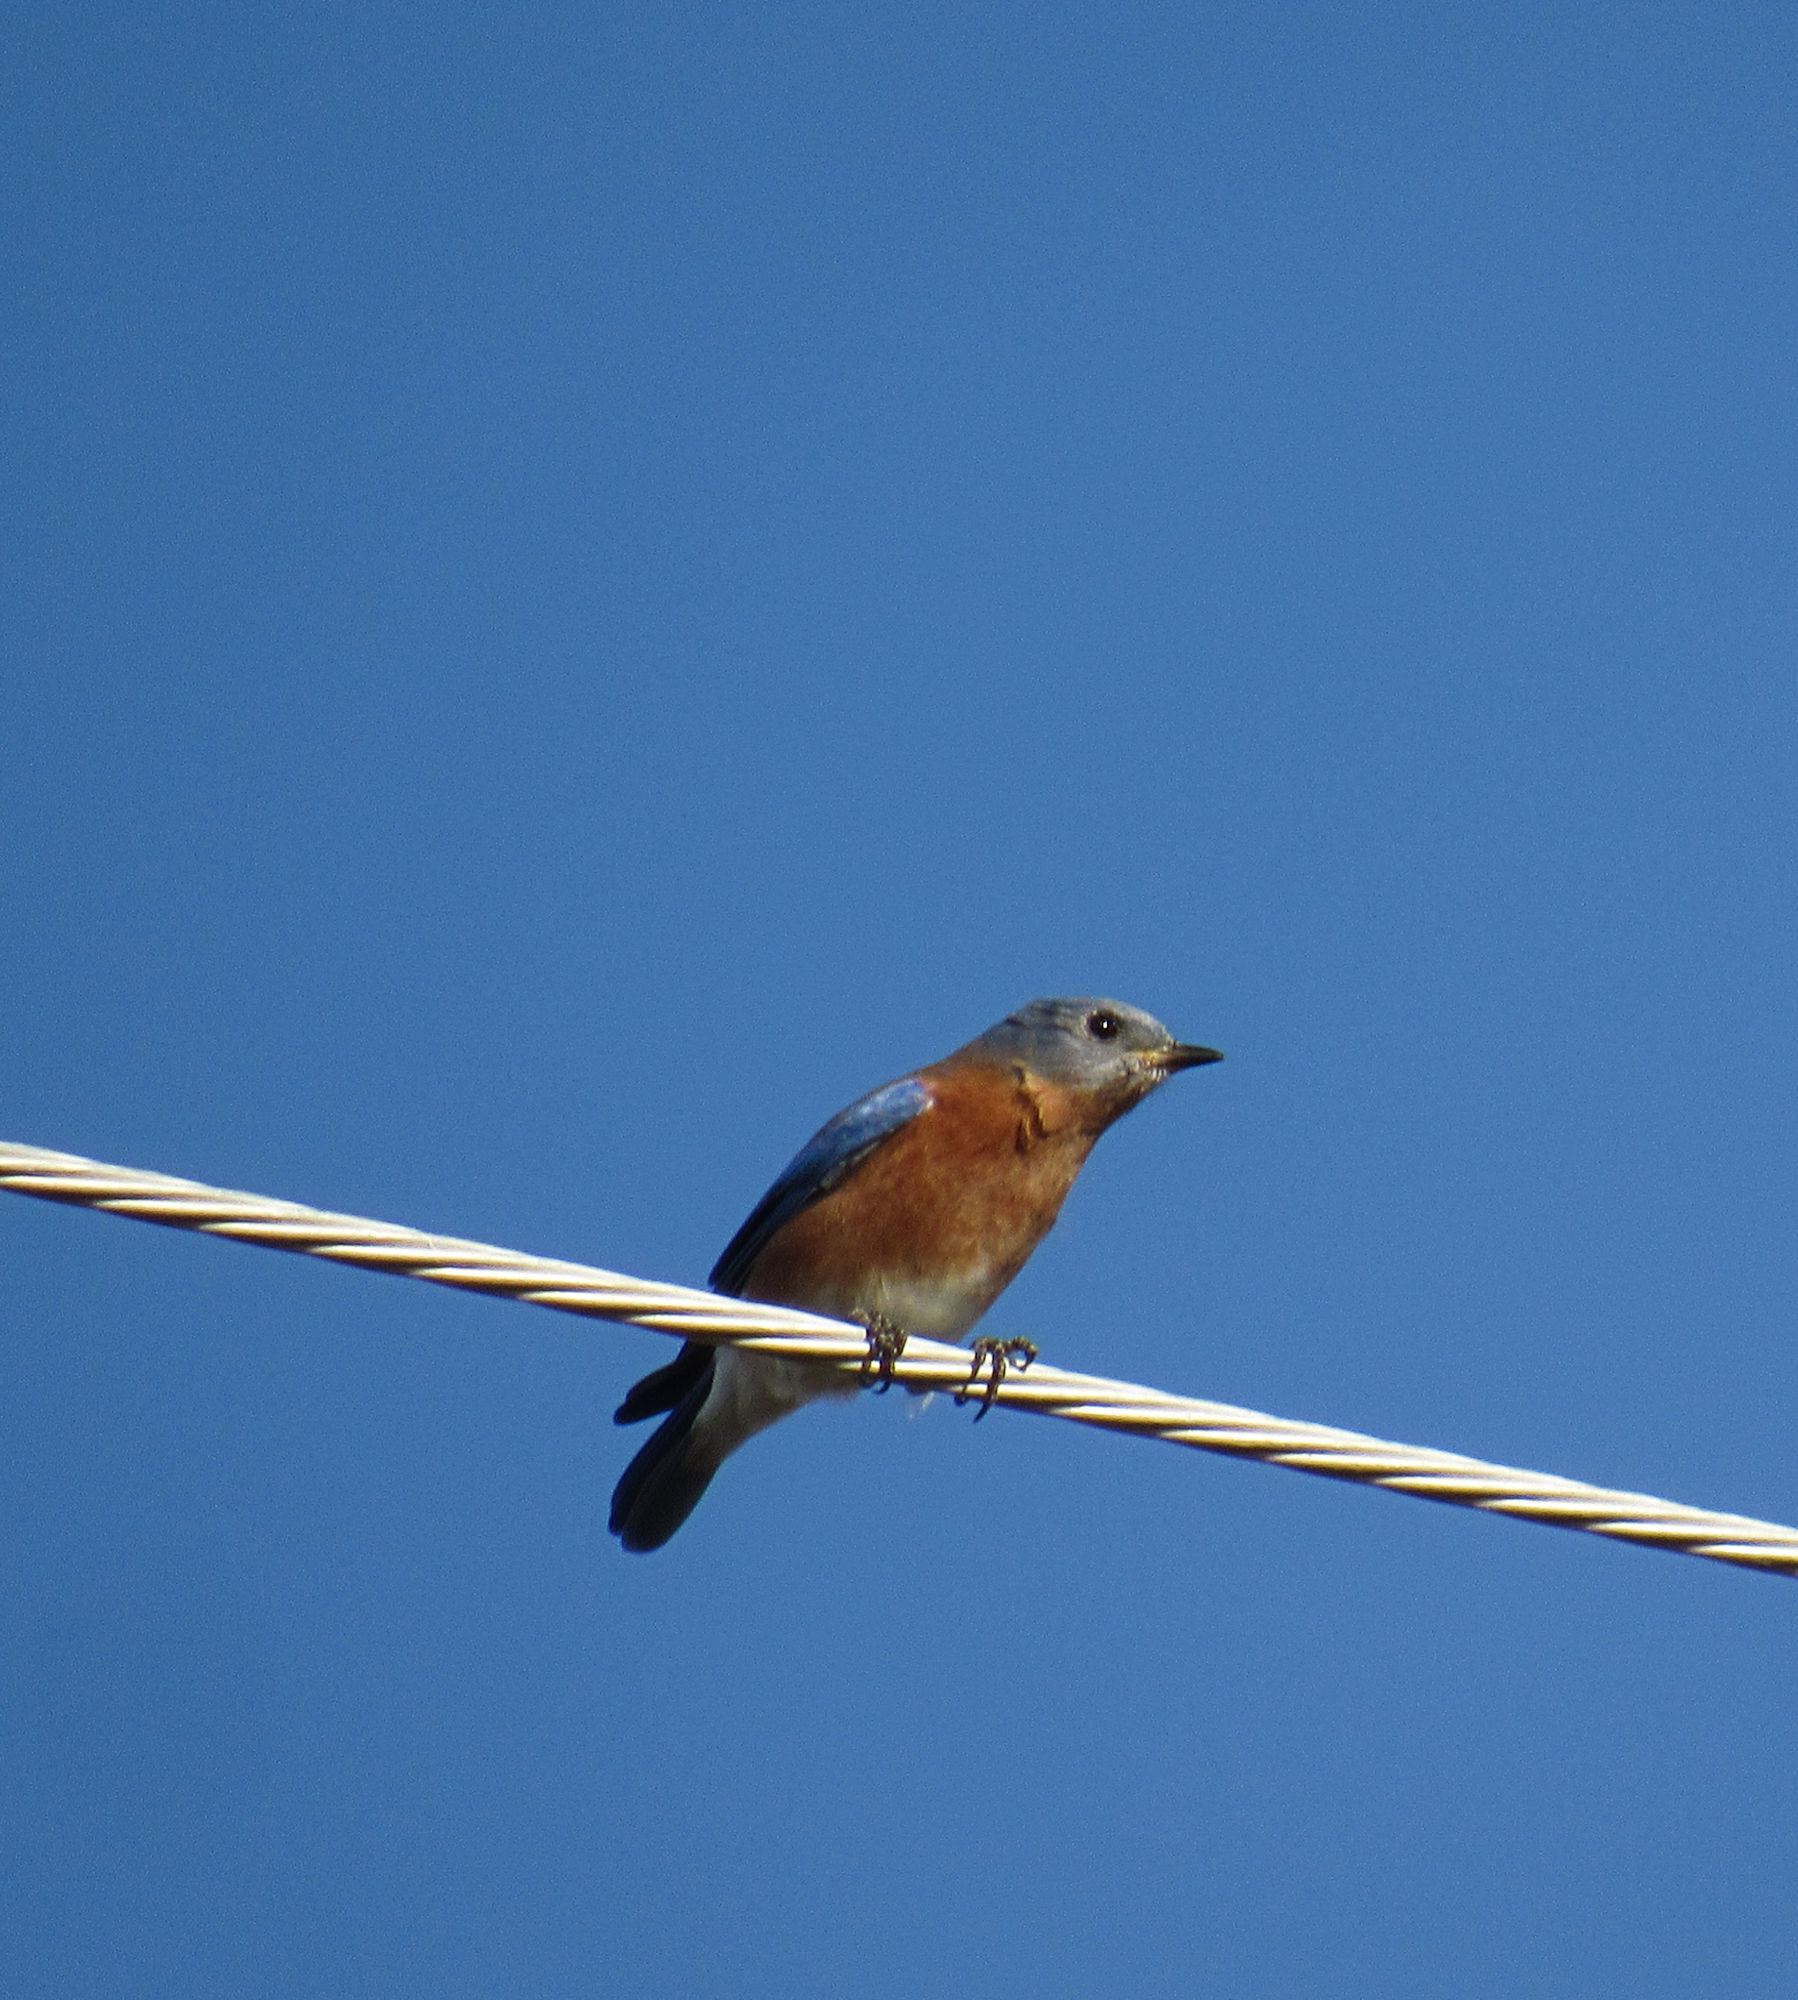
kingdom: Animalia
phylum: Chordata
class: Aves
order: Passeriformes
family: Turdidae
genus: Sialia
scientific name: Sialia sialis
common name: Eastern bluebird
